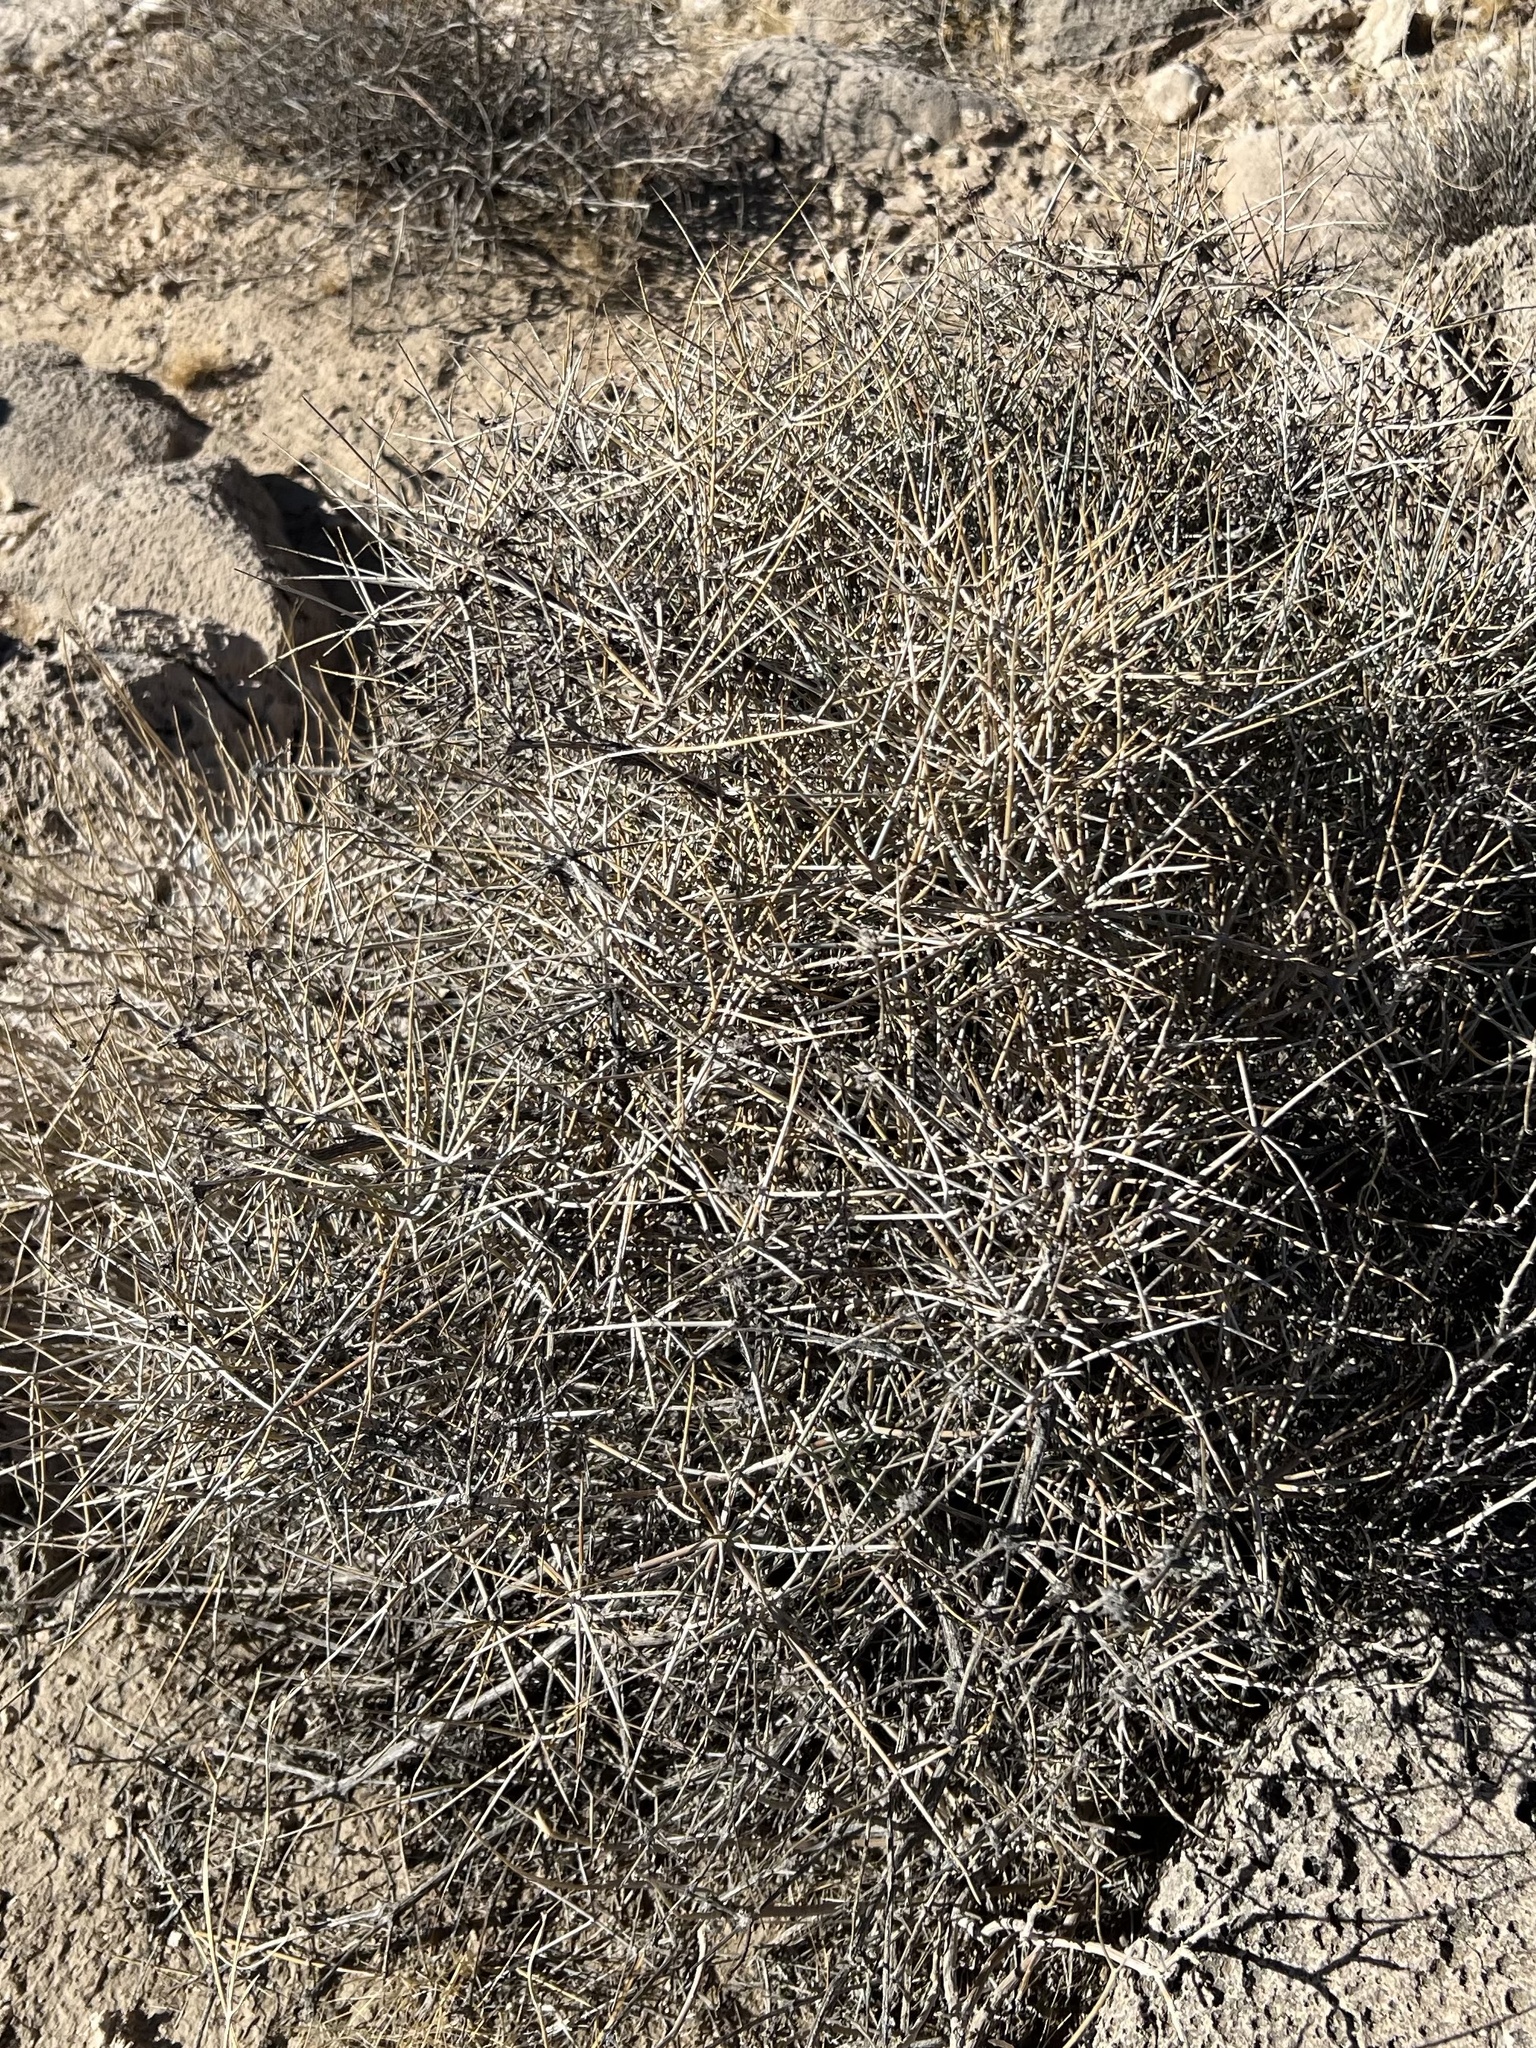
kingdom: Plantae
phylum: Tracheophyta
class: Gnetopsida
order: Ephedrales
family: Ephedraceae
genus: Ephedra
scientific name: Ephedra nevadensis
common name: Gray ephedra
